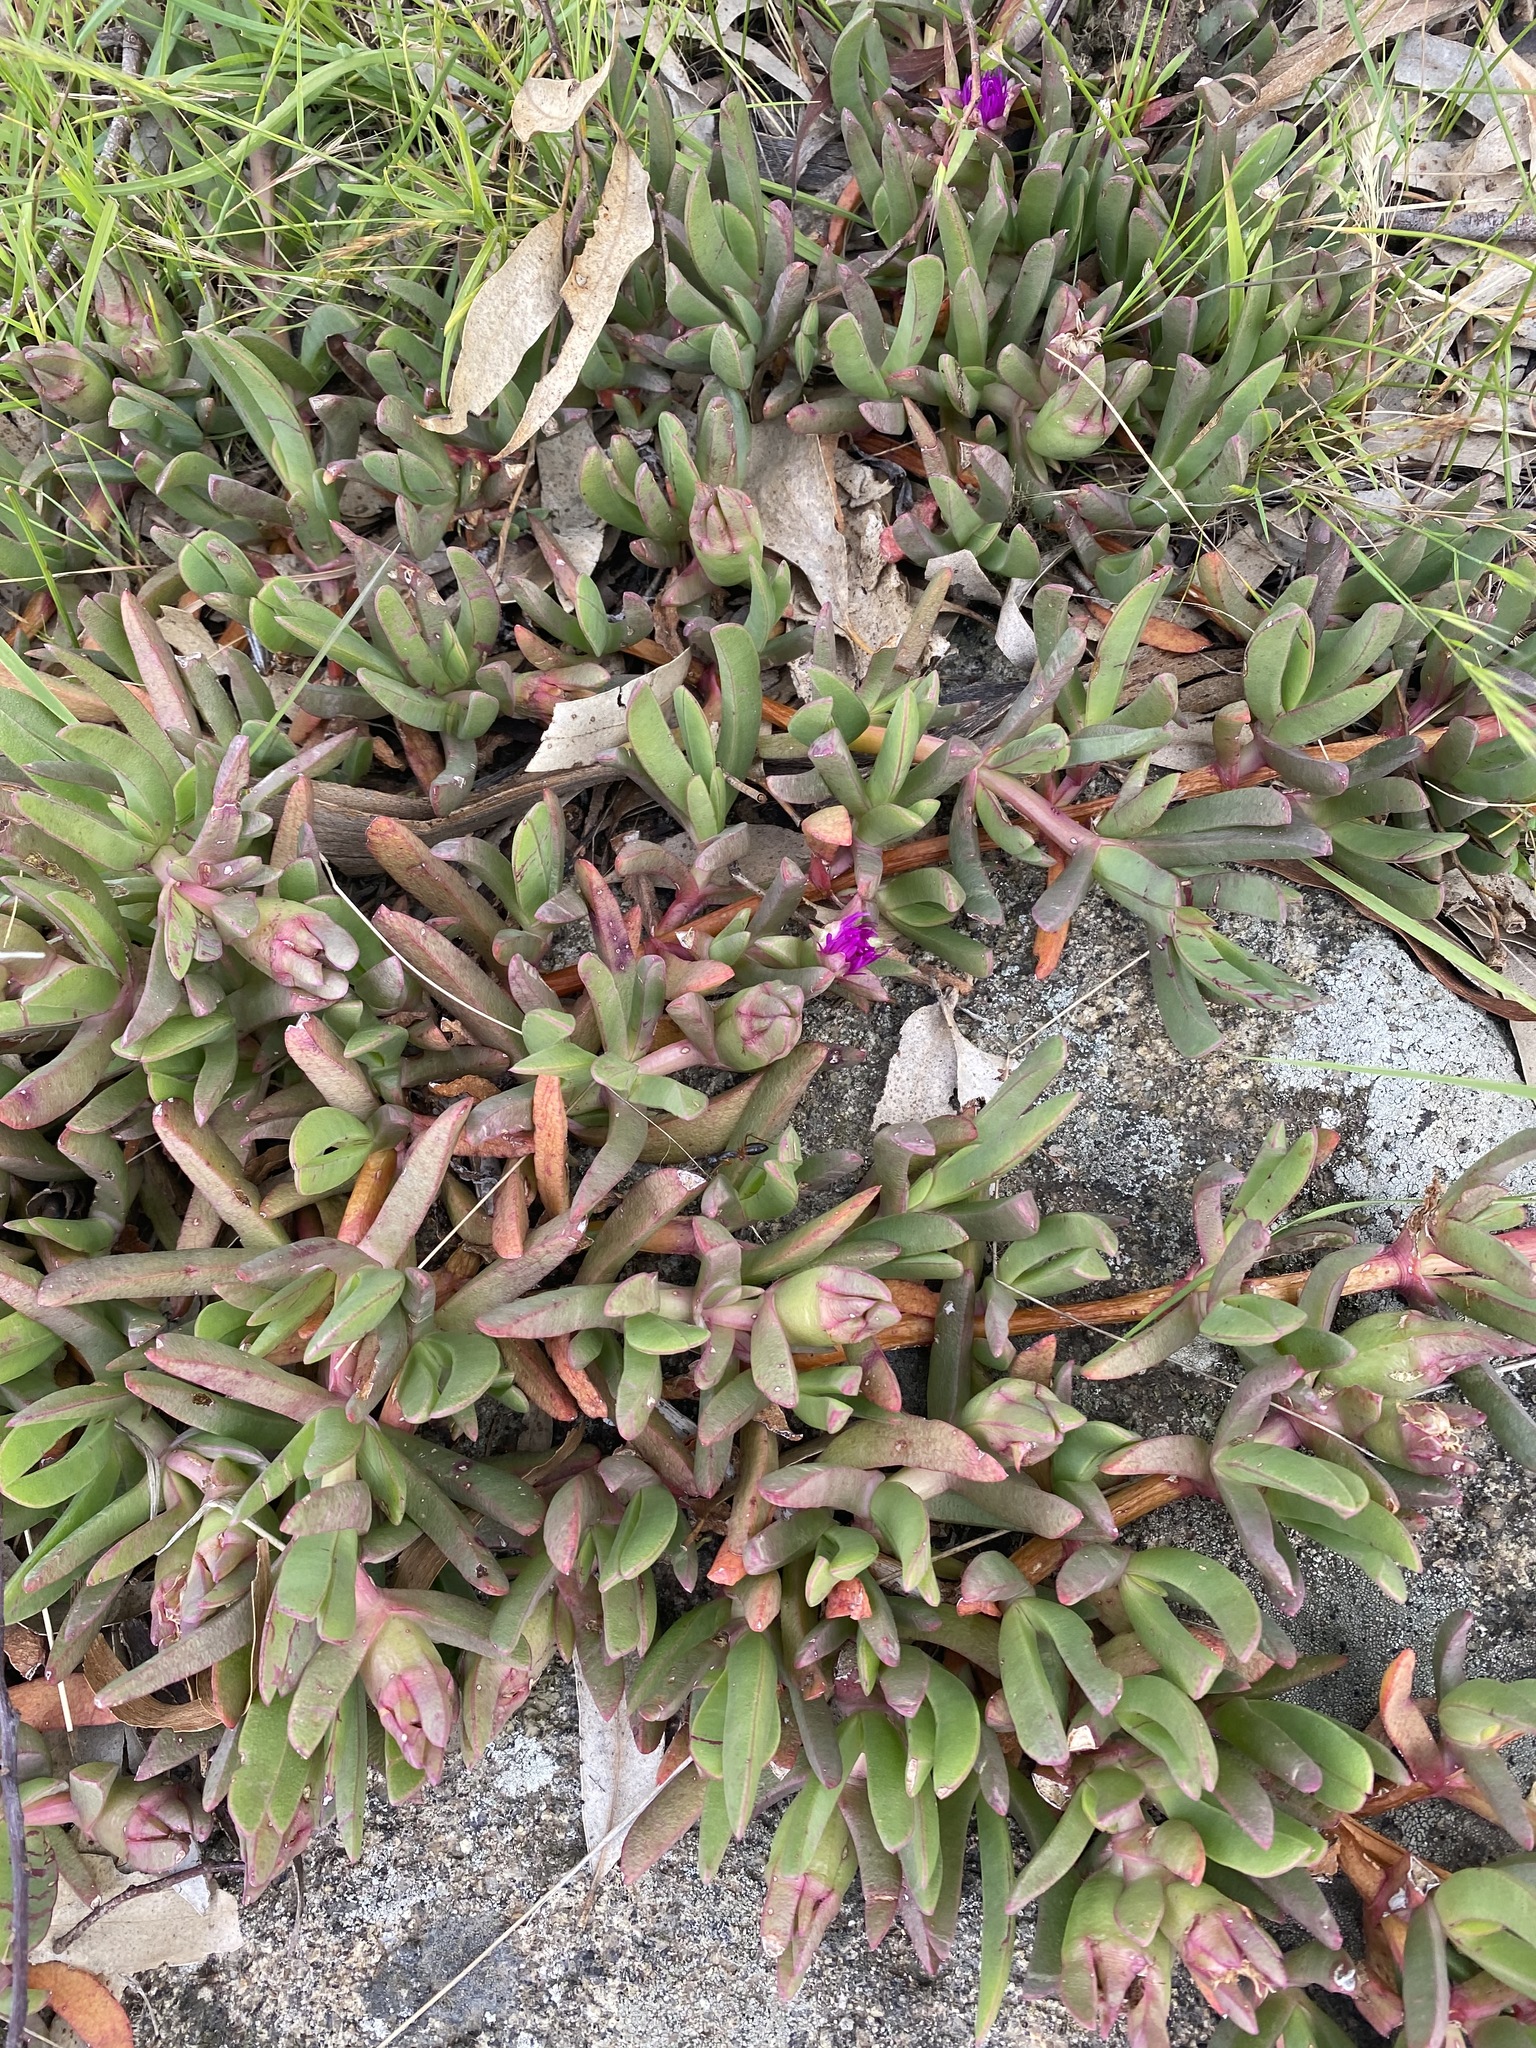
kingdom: Plantae
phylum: Tracheophyta
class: Magnoliopsida
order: Caryophyllales
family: Aizoaceae
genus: Carpobrotus
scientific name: Carpobrotus modestus
